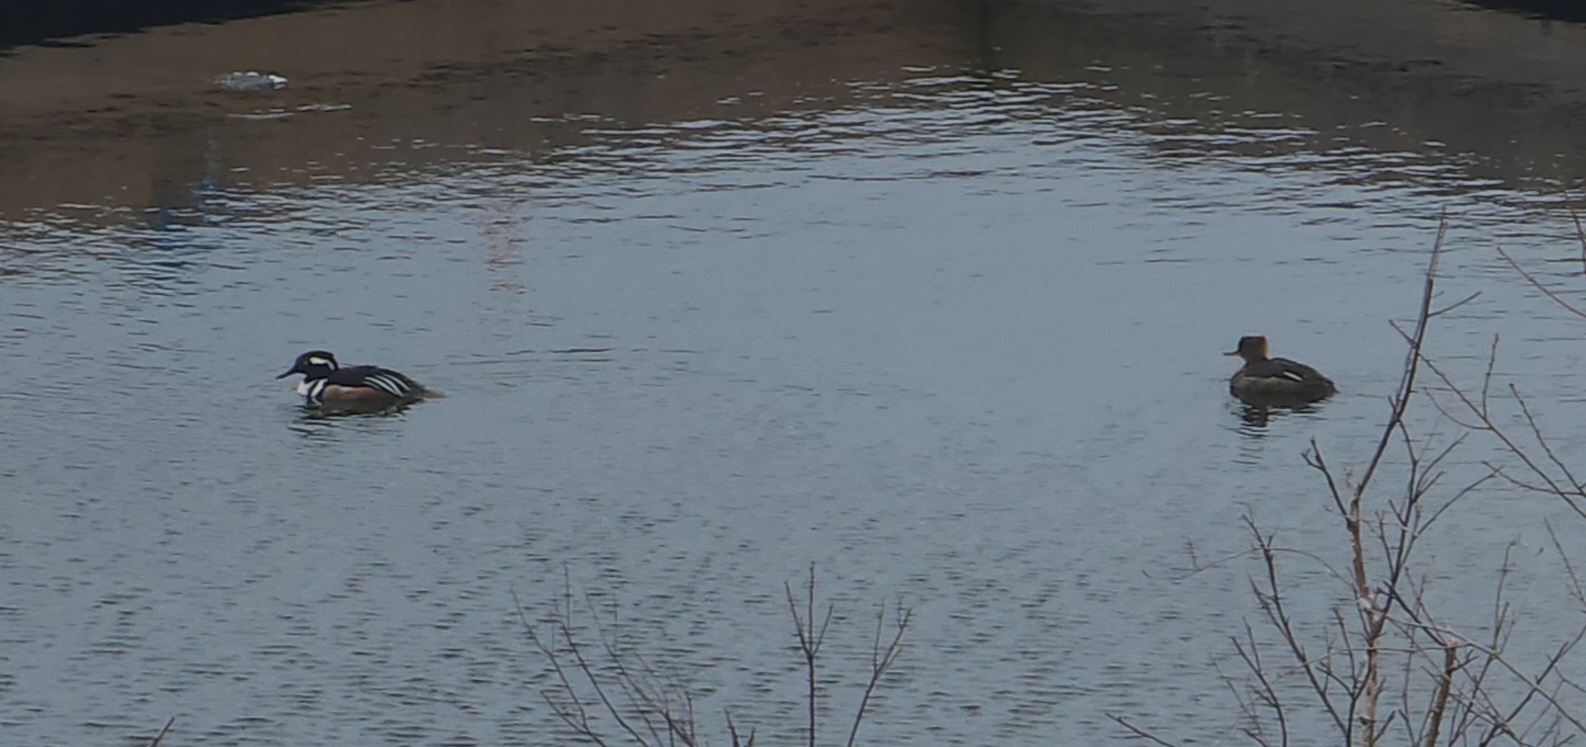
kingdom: Animalia
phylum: Chordata
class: Aves
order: Anseriformes
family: Anatidae
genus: Lophodytes
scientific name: Lophodytes cucullatus
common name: Hooded merganser
